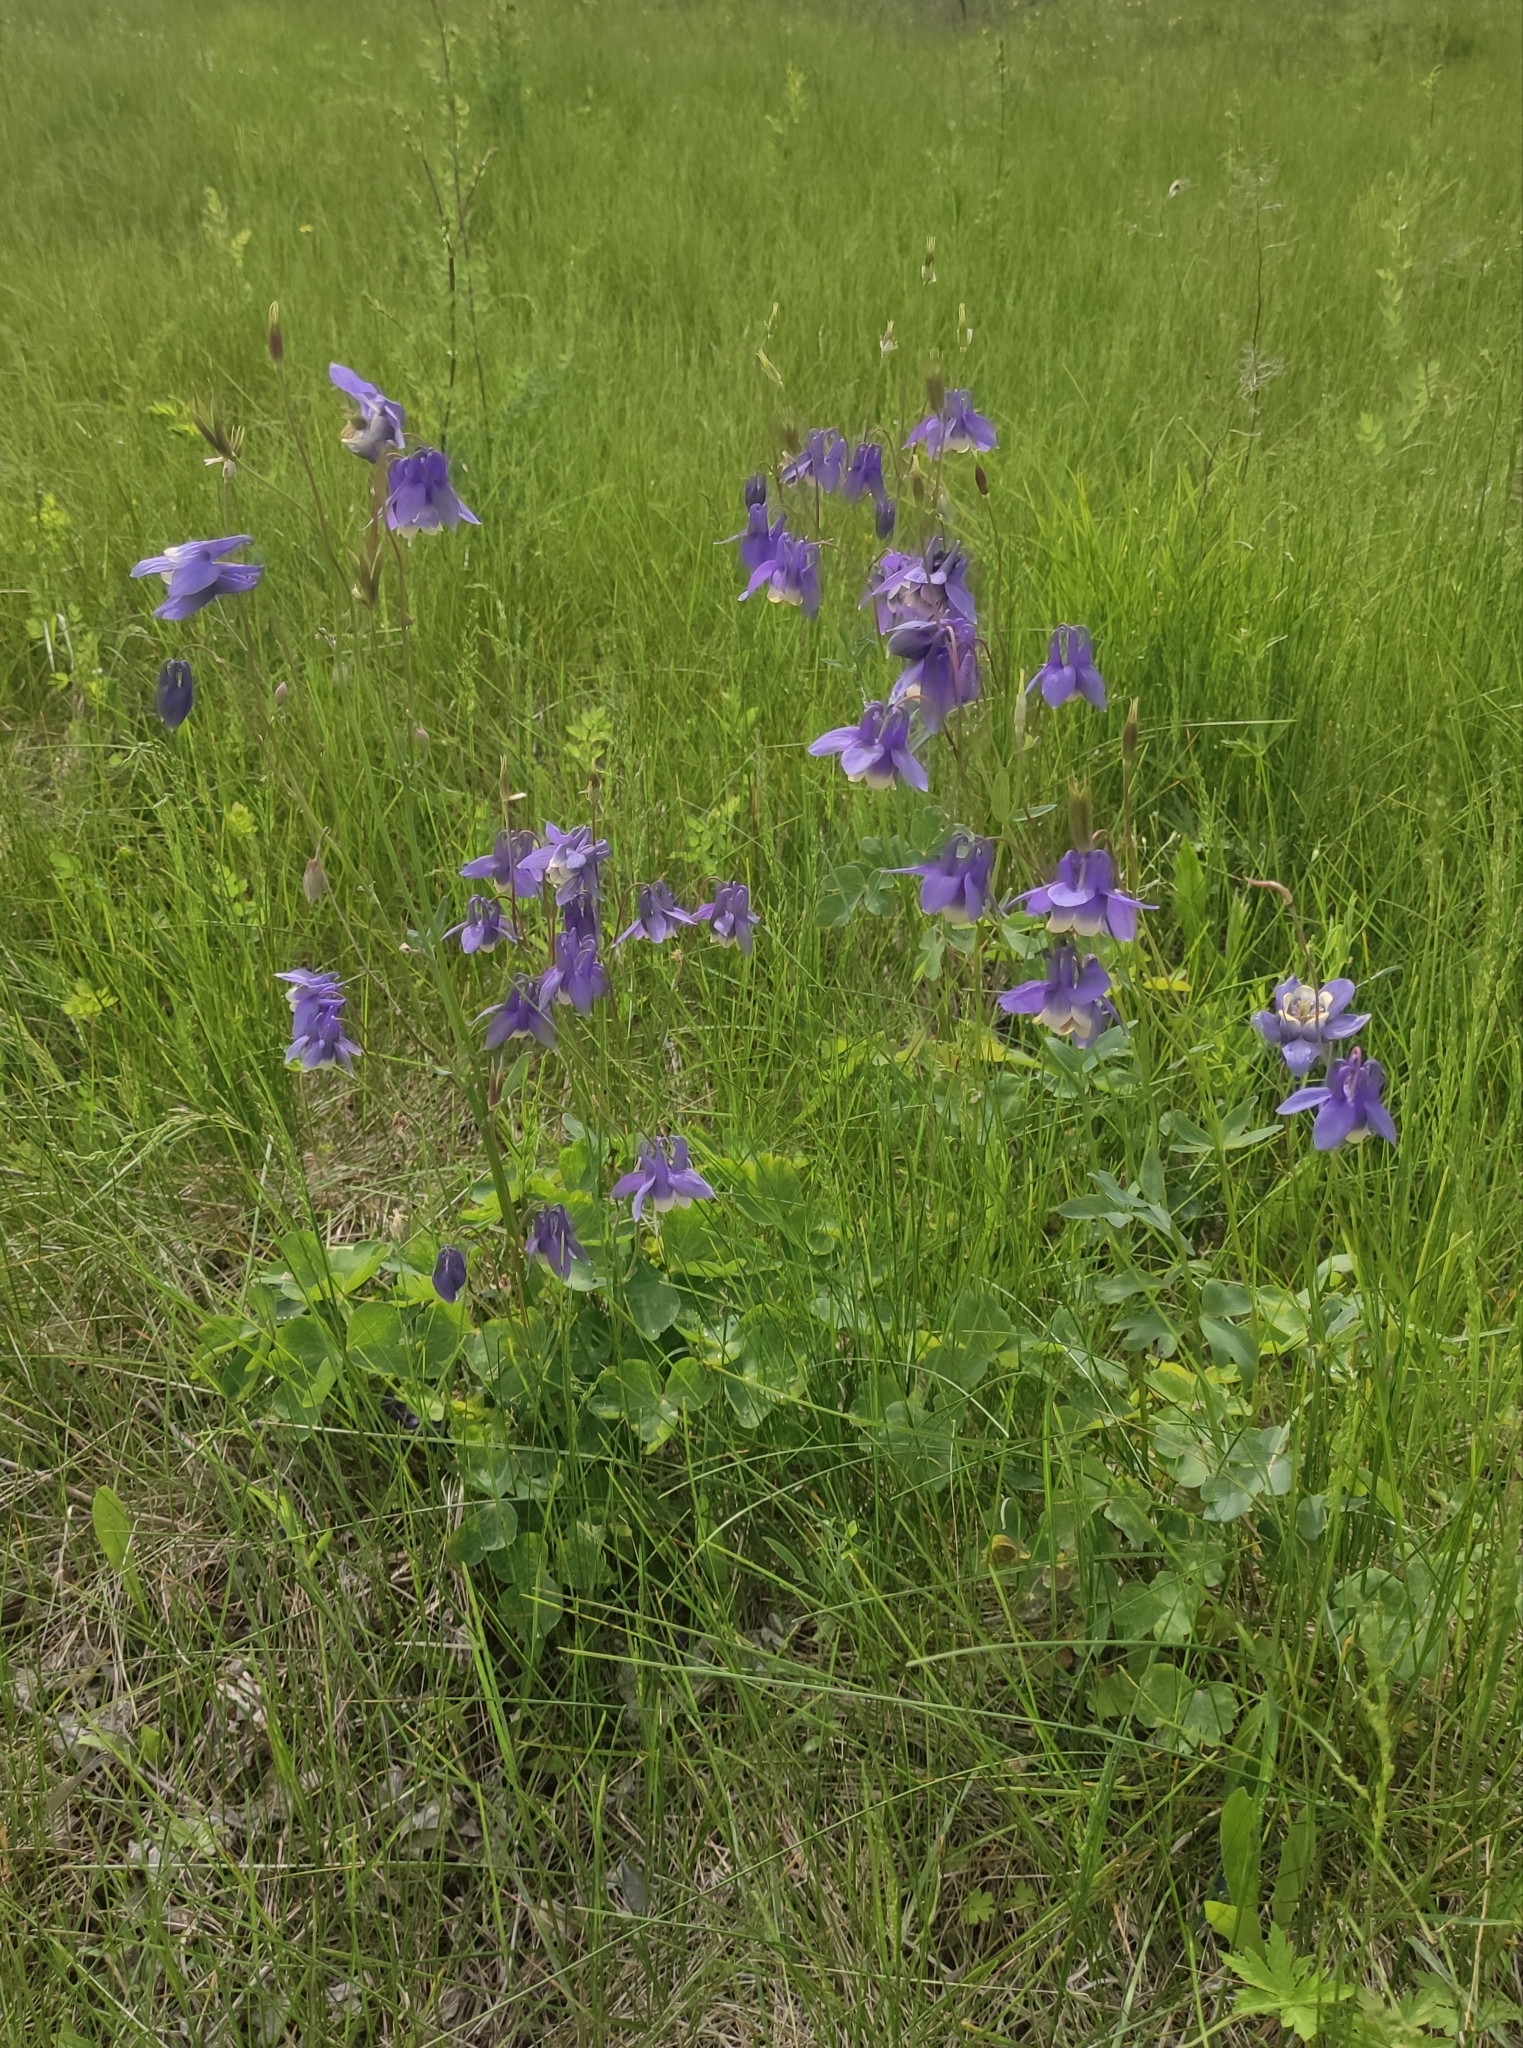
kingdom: Plantae
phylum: Tracheophyta
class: Magnoliopsida
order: Ranunculales
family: Ranunculaceae
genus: Aquilegia
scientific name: Aquilegia sibirica
